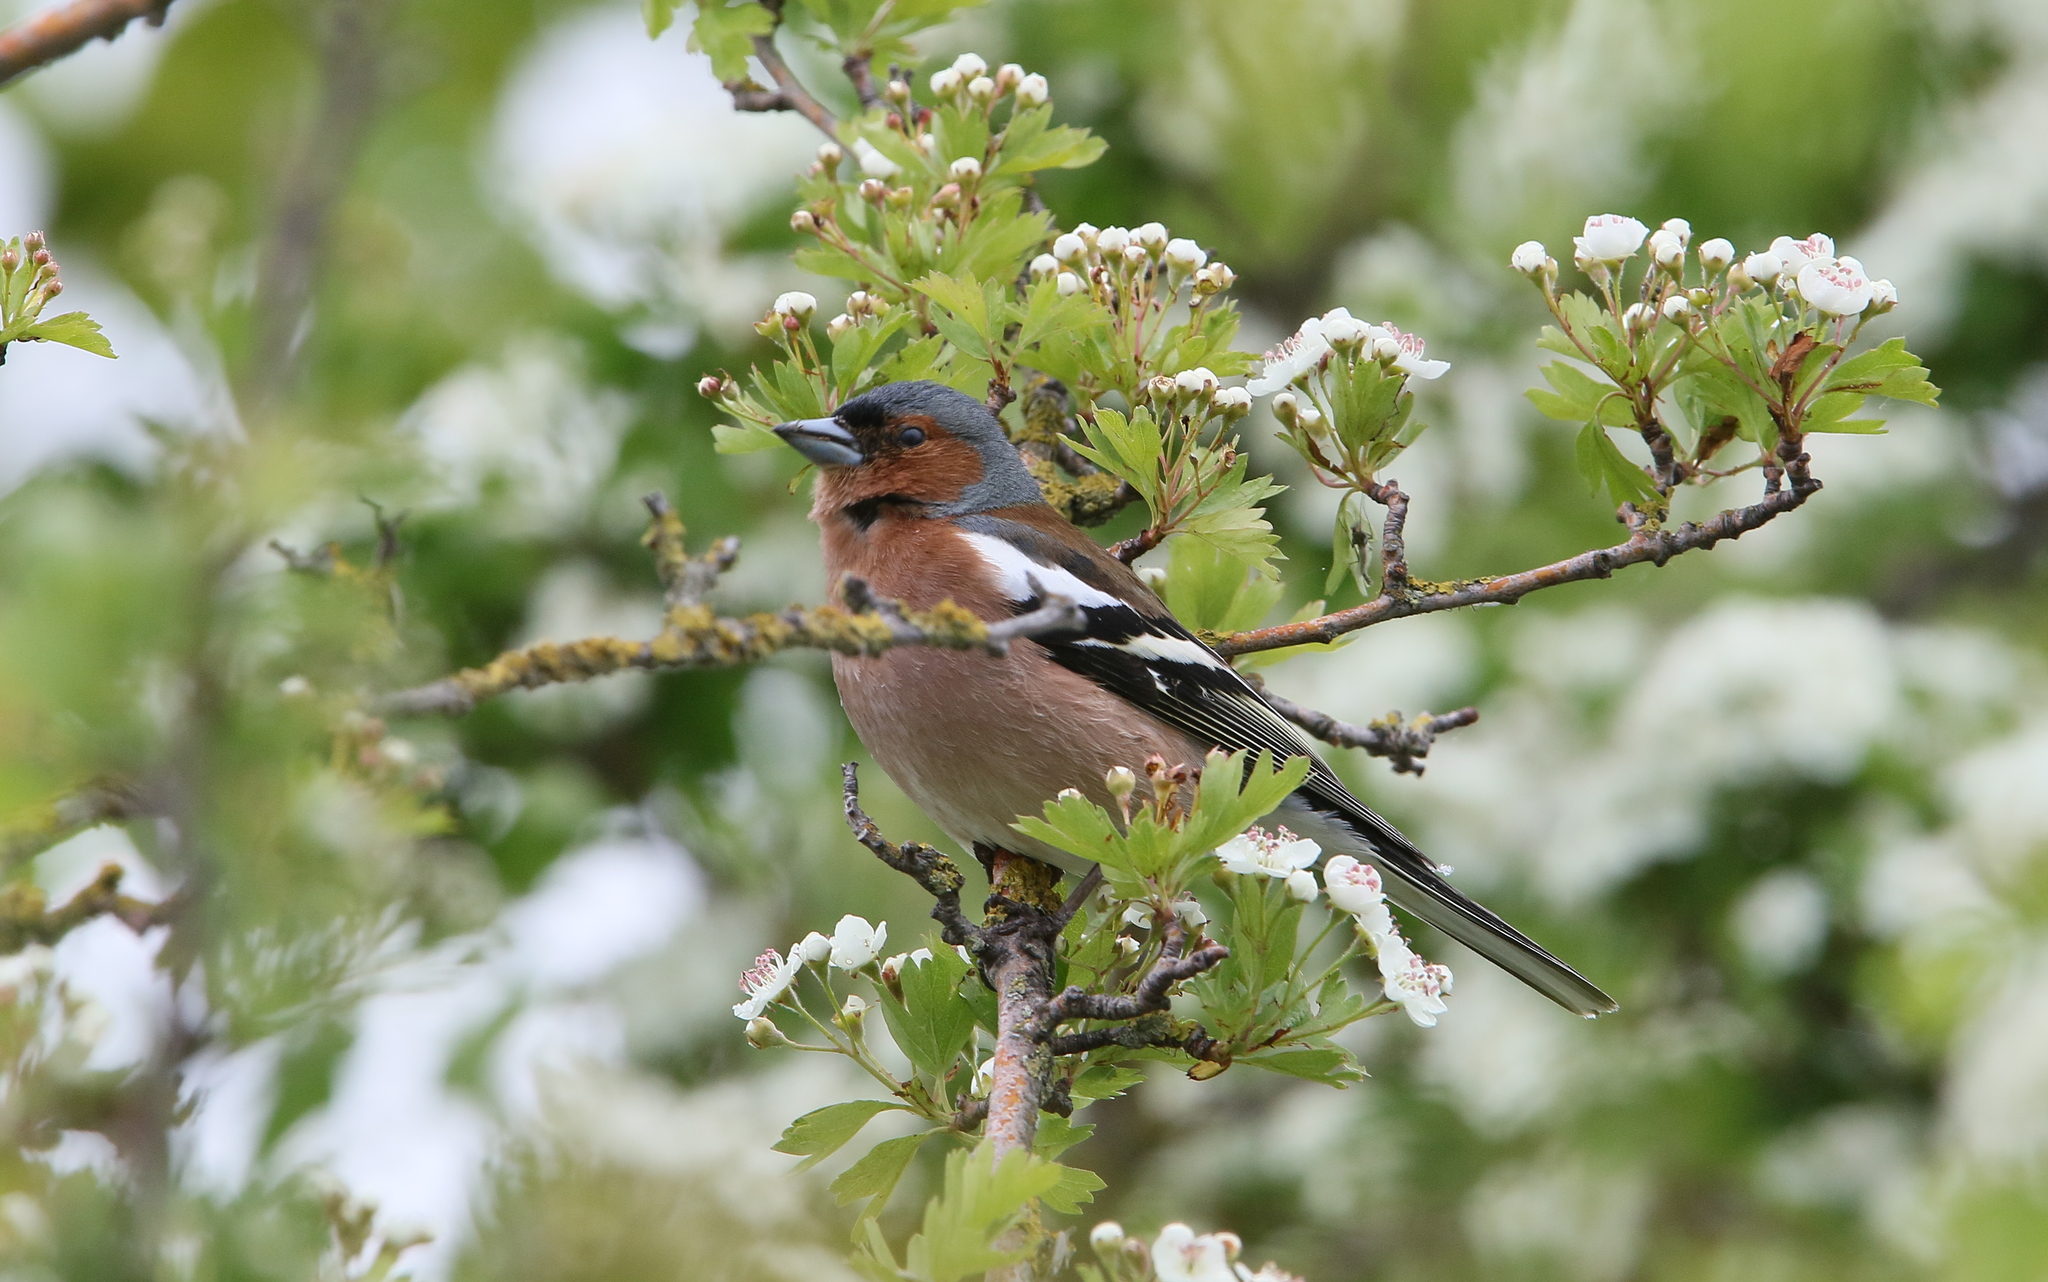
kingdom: Animalia
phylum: Chordata
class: Aves
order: Passeriformes
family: Fringillidae
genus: Fringilla
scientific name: Fringilla coelebs
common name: Common chaffinch
